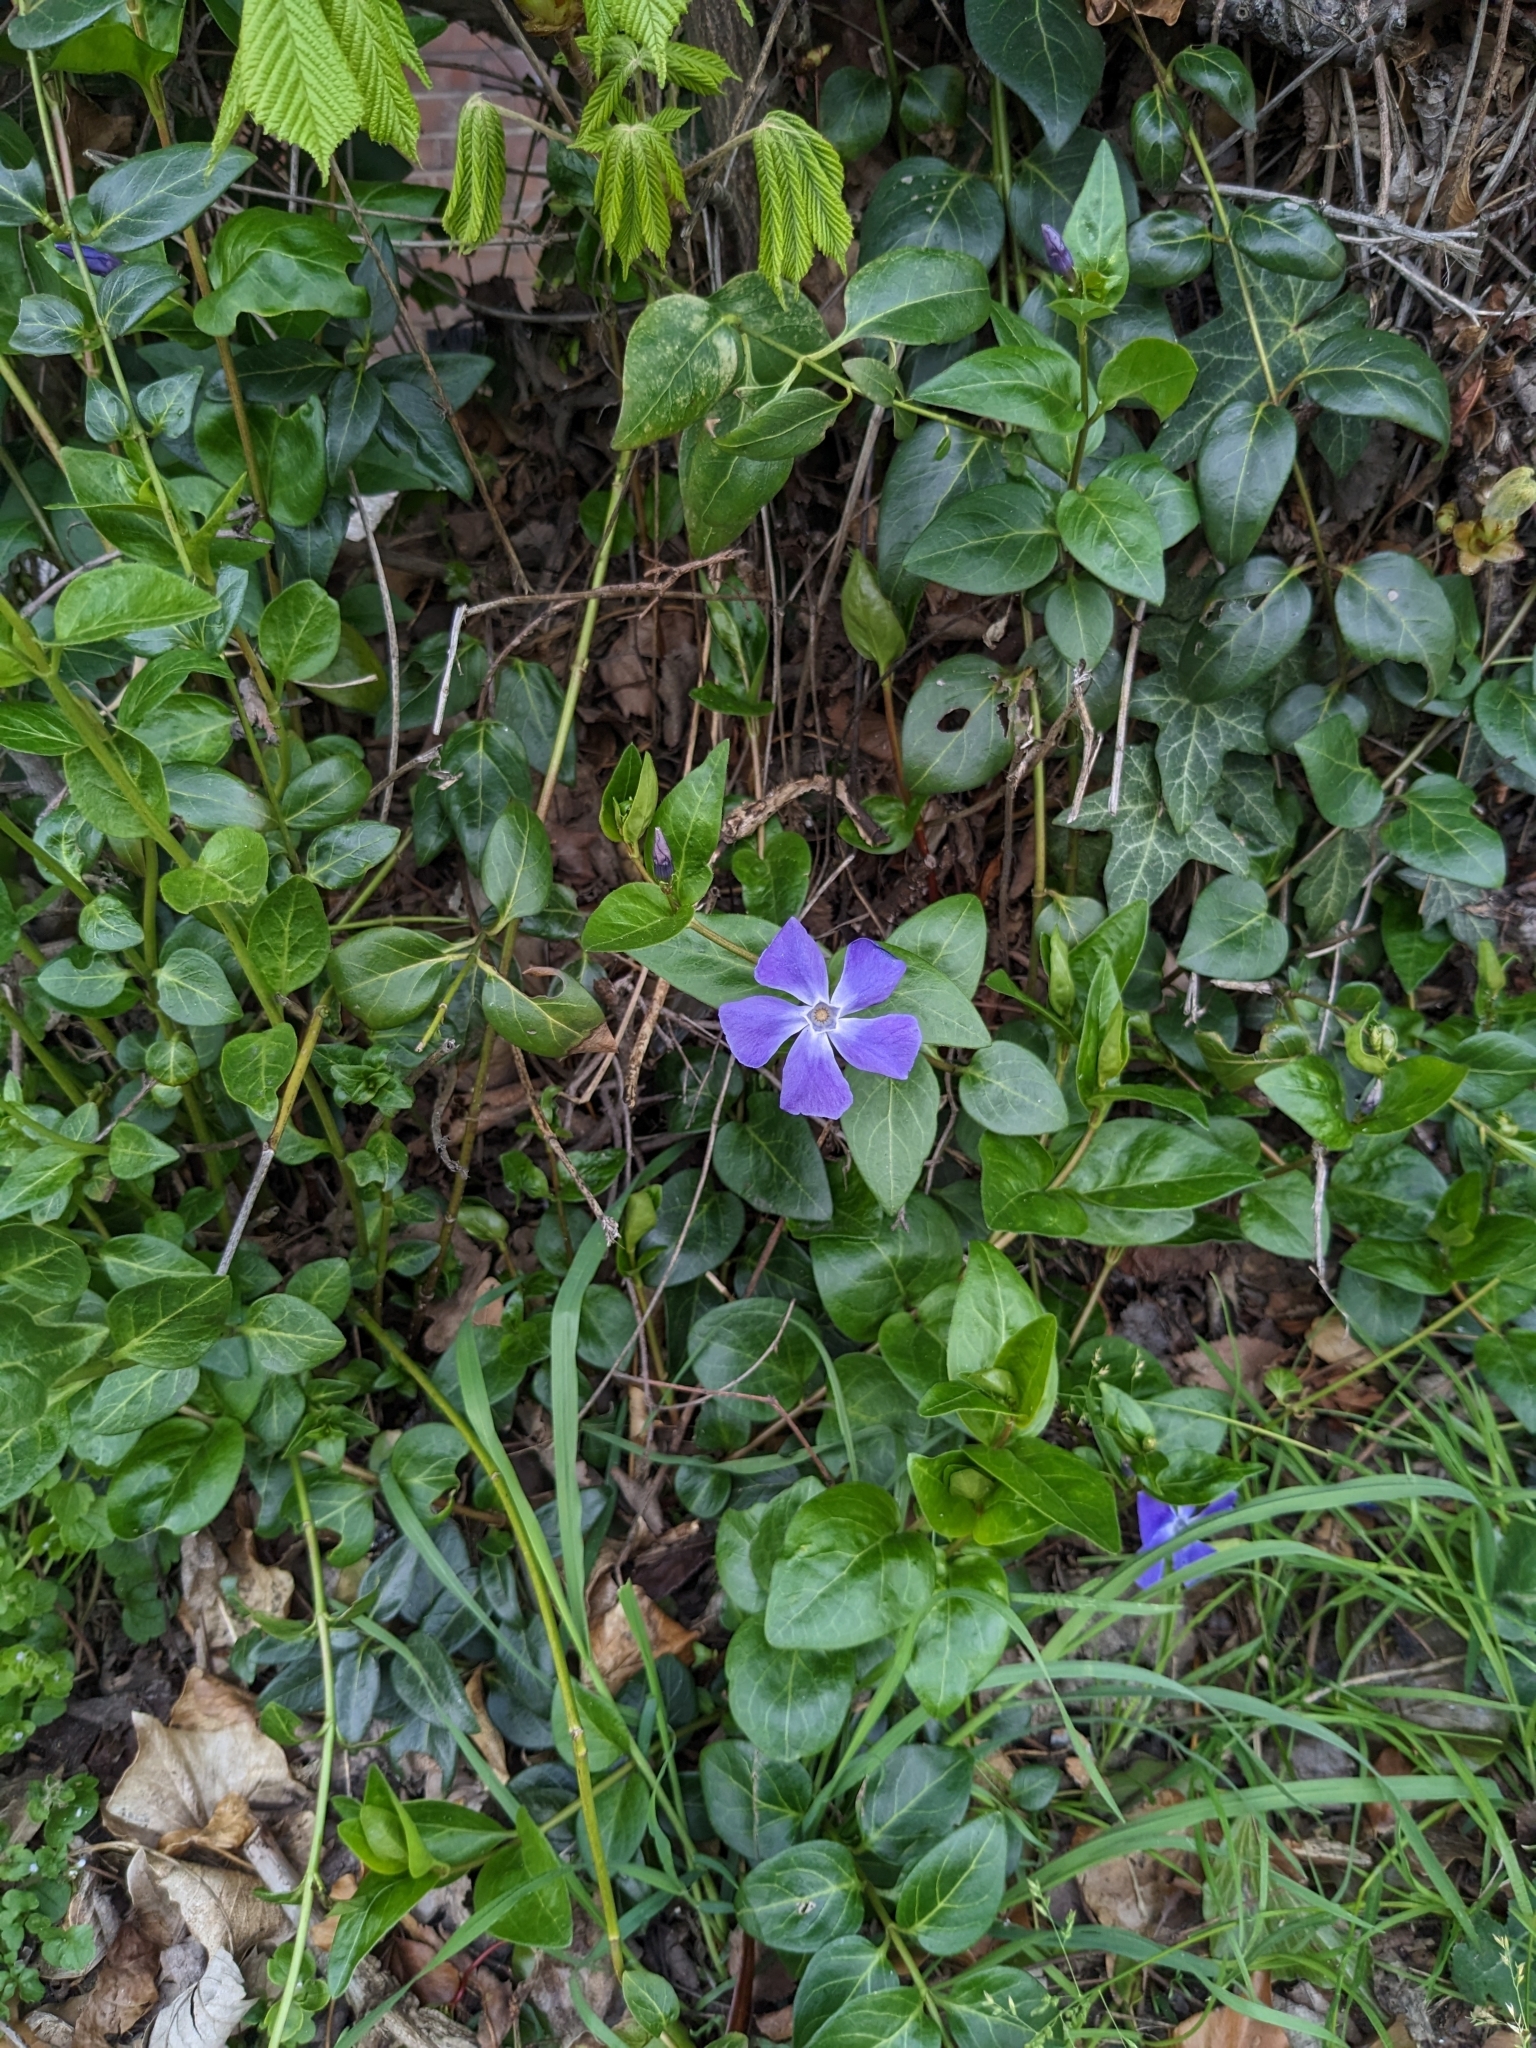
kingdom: Plantae
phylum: Tracheophyta
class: Magnoliopsida
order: Gentianales
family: Apocynaceae
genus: Vinca
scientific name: Vinca major
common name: Greater periwinkle
